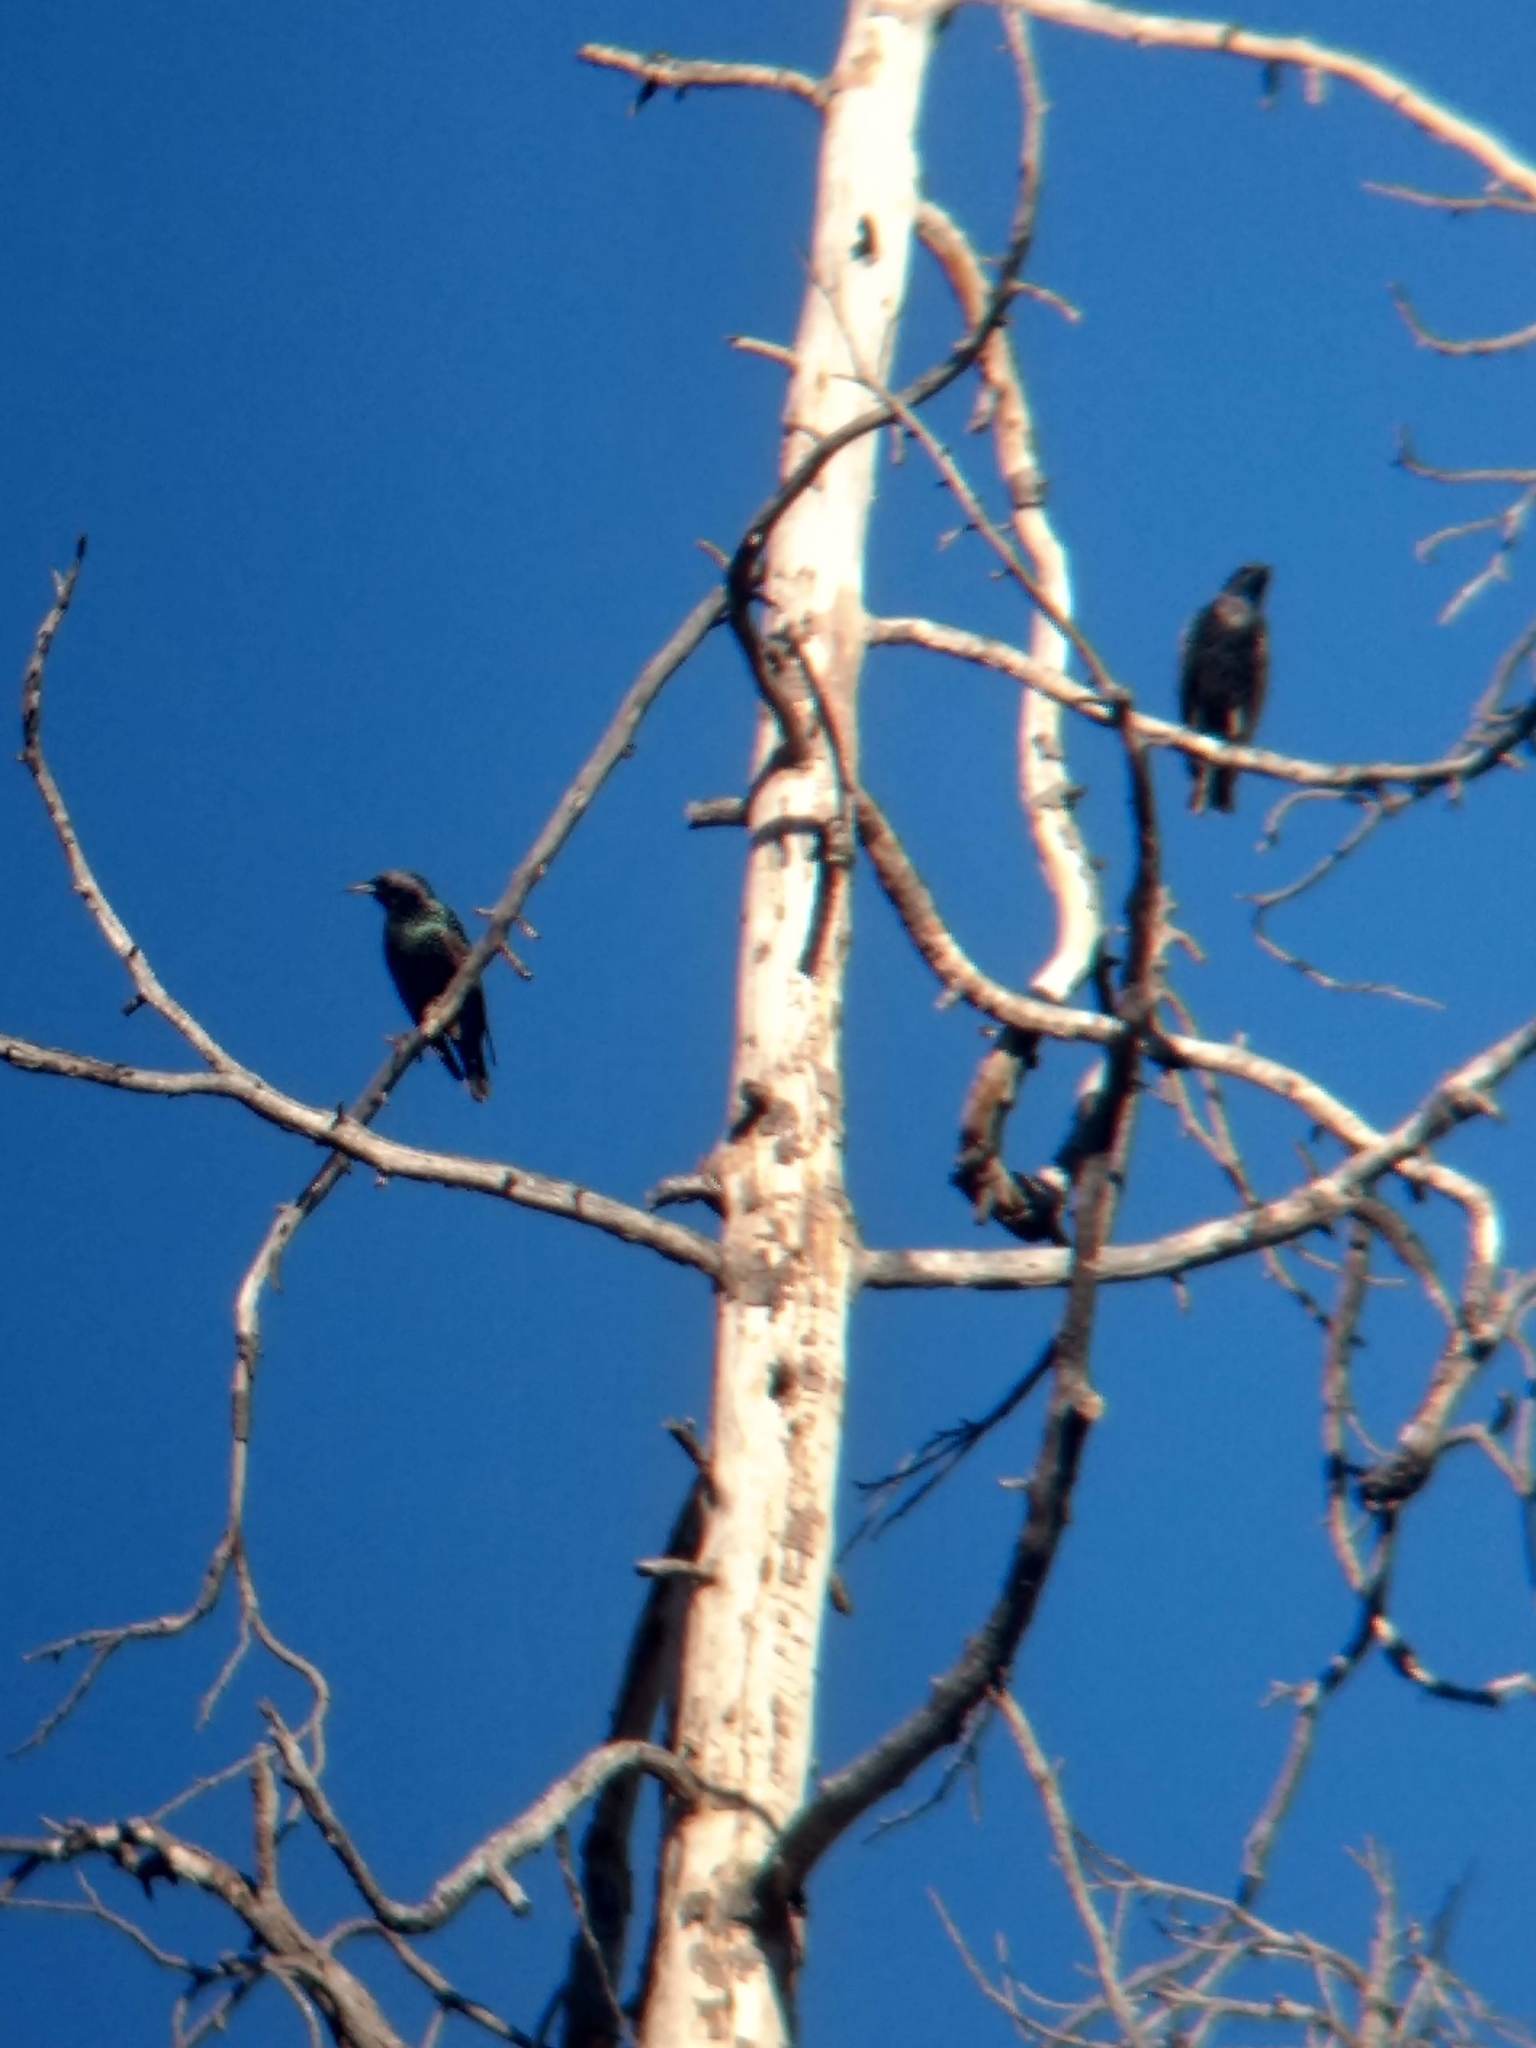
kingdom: Animalia
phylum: Chordata
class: Aves
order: Passeriformes
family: Sturnidae
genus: Sturnus
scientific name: Sturnus vulgaris
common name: Common starling
